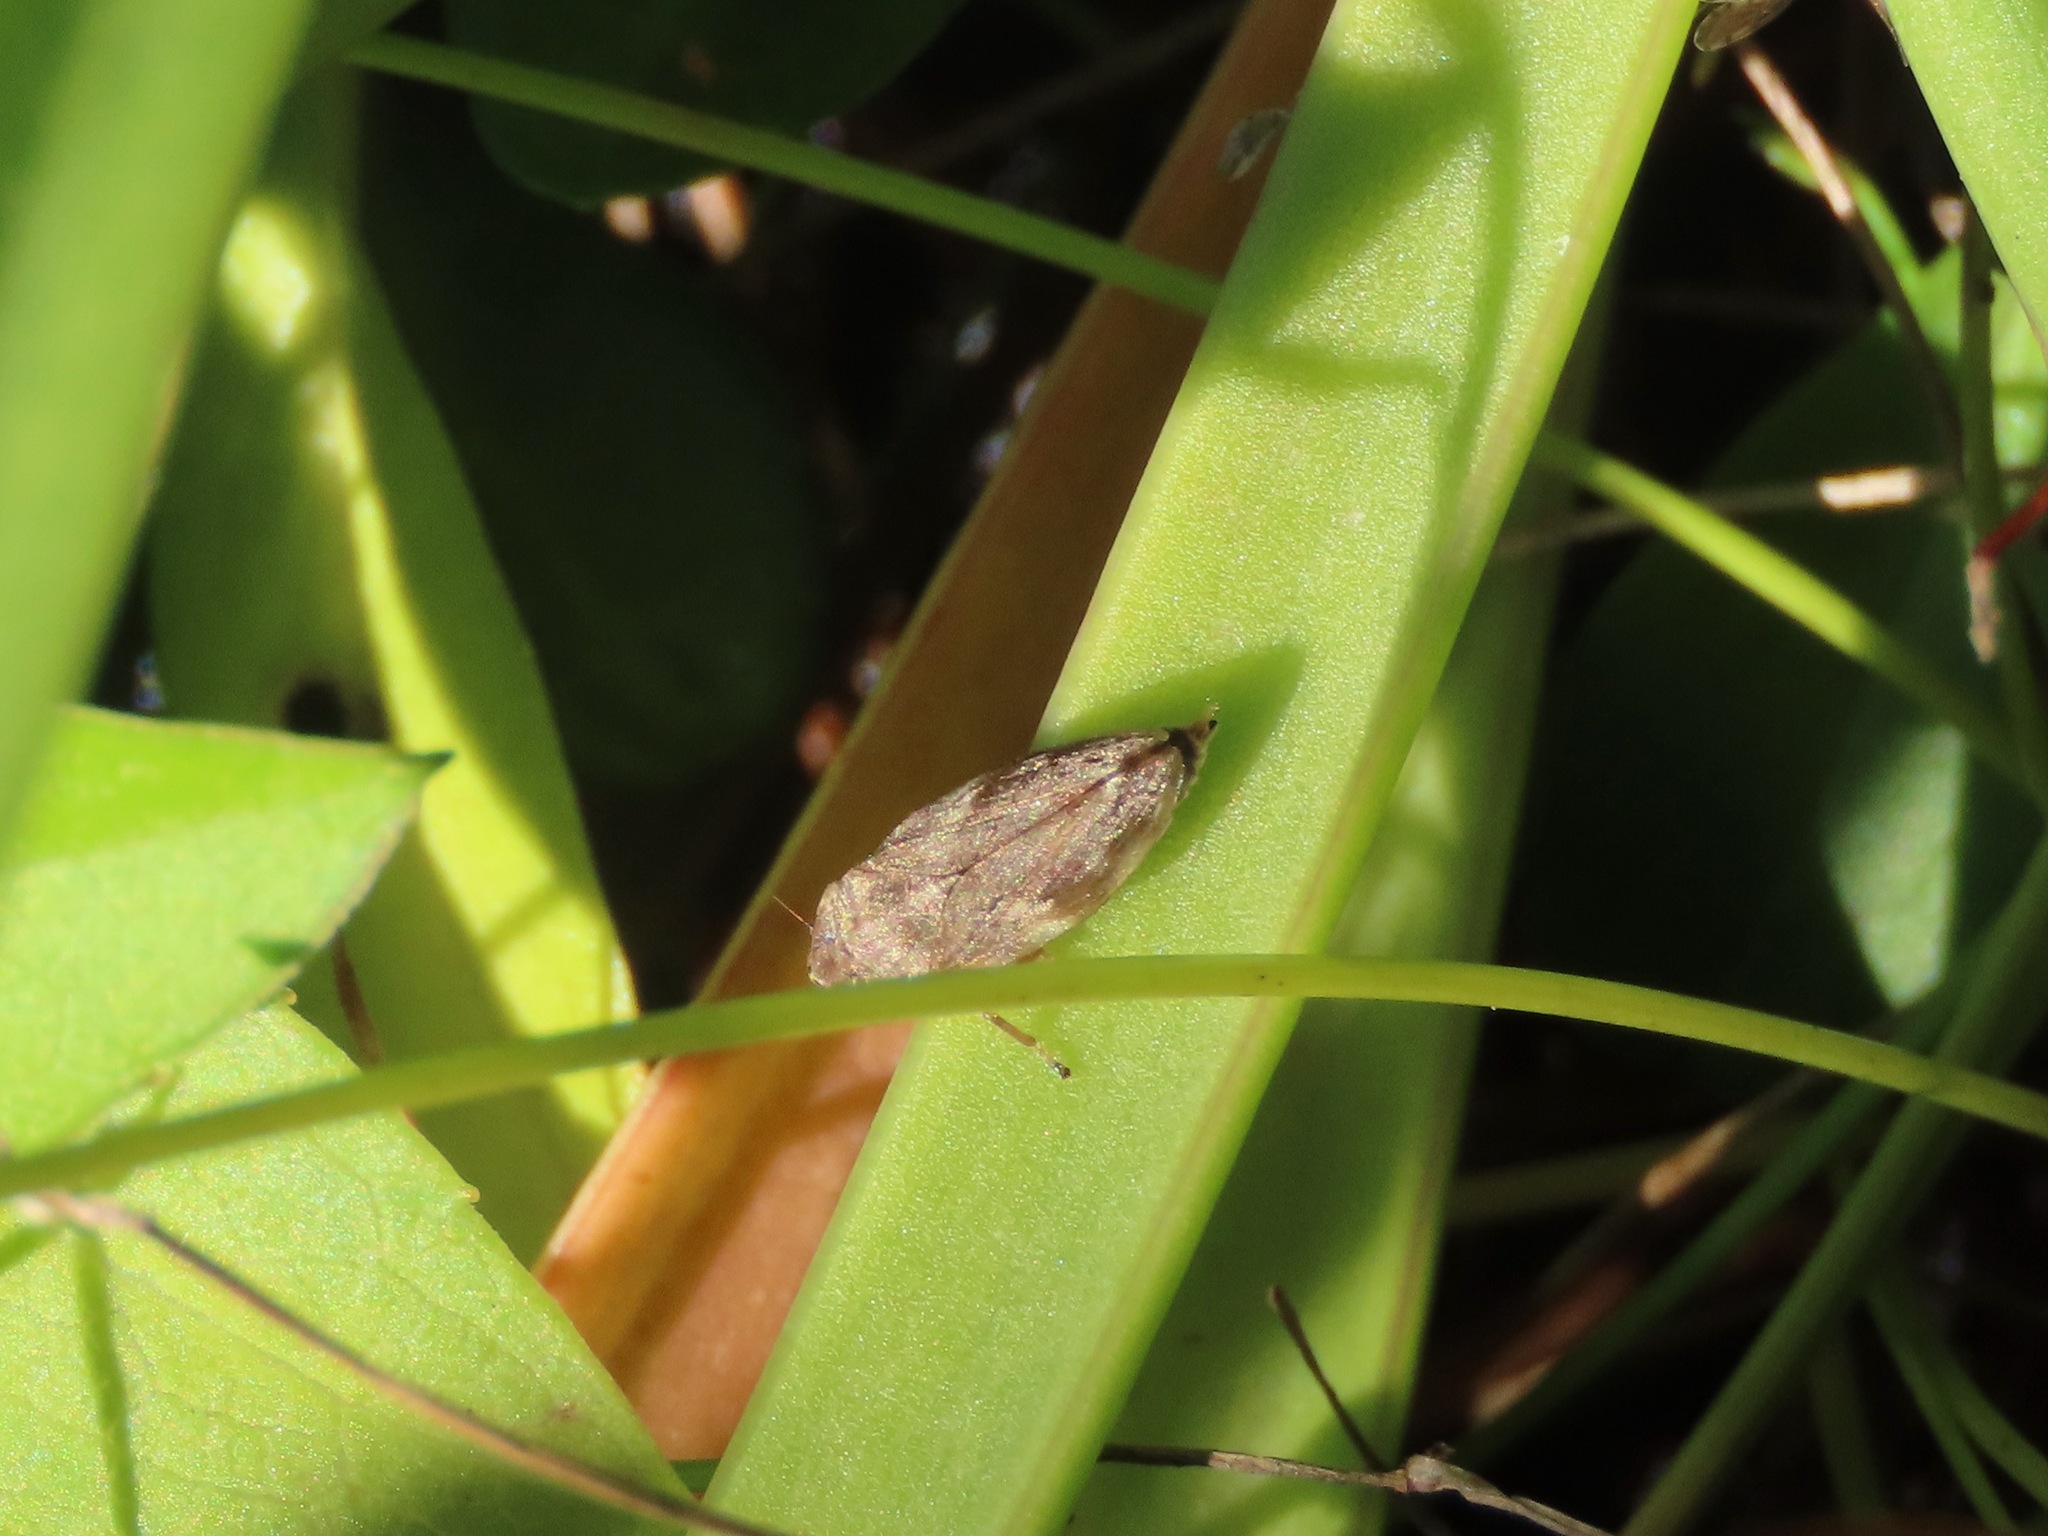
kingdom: Animalia
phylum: Arthropoda
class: Insecta
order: Hemiptera
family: Aphrophoridae
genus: Philaenus
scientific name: Philaenus spumarius
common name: Meadow spittlebug
